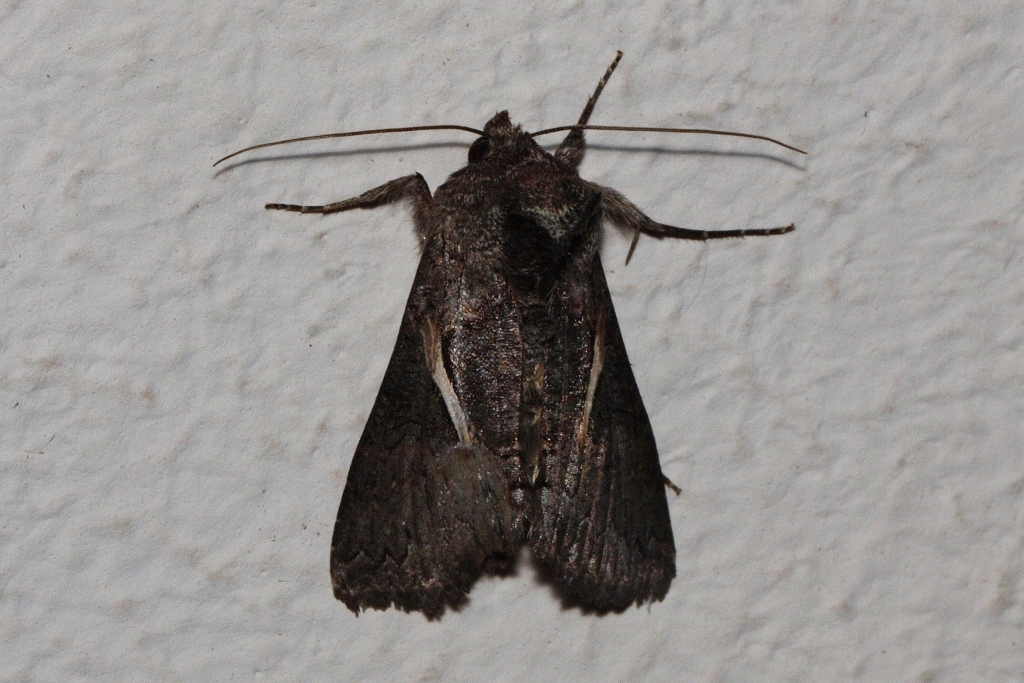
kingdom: Animalia
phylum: Arthropoda
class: Insecta
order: Lepidoptera
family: Noctuidae
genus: Vittaplusia
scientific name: Vittaplusia vittata
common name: Streaked plusia
